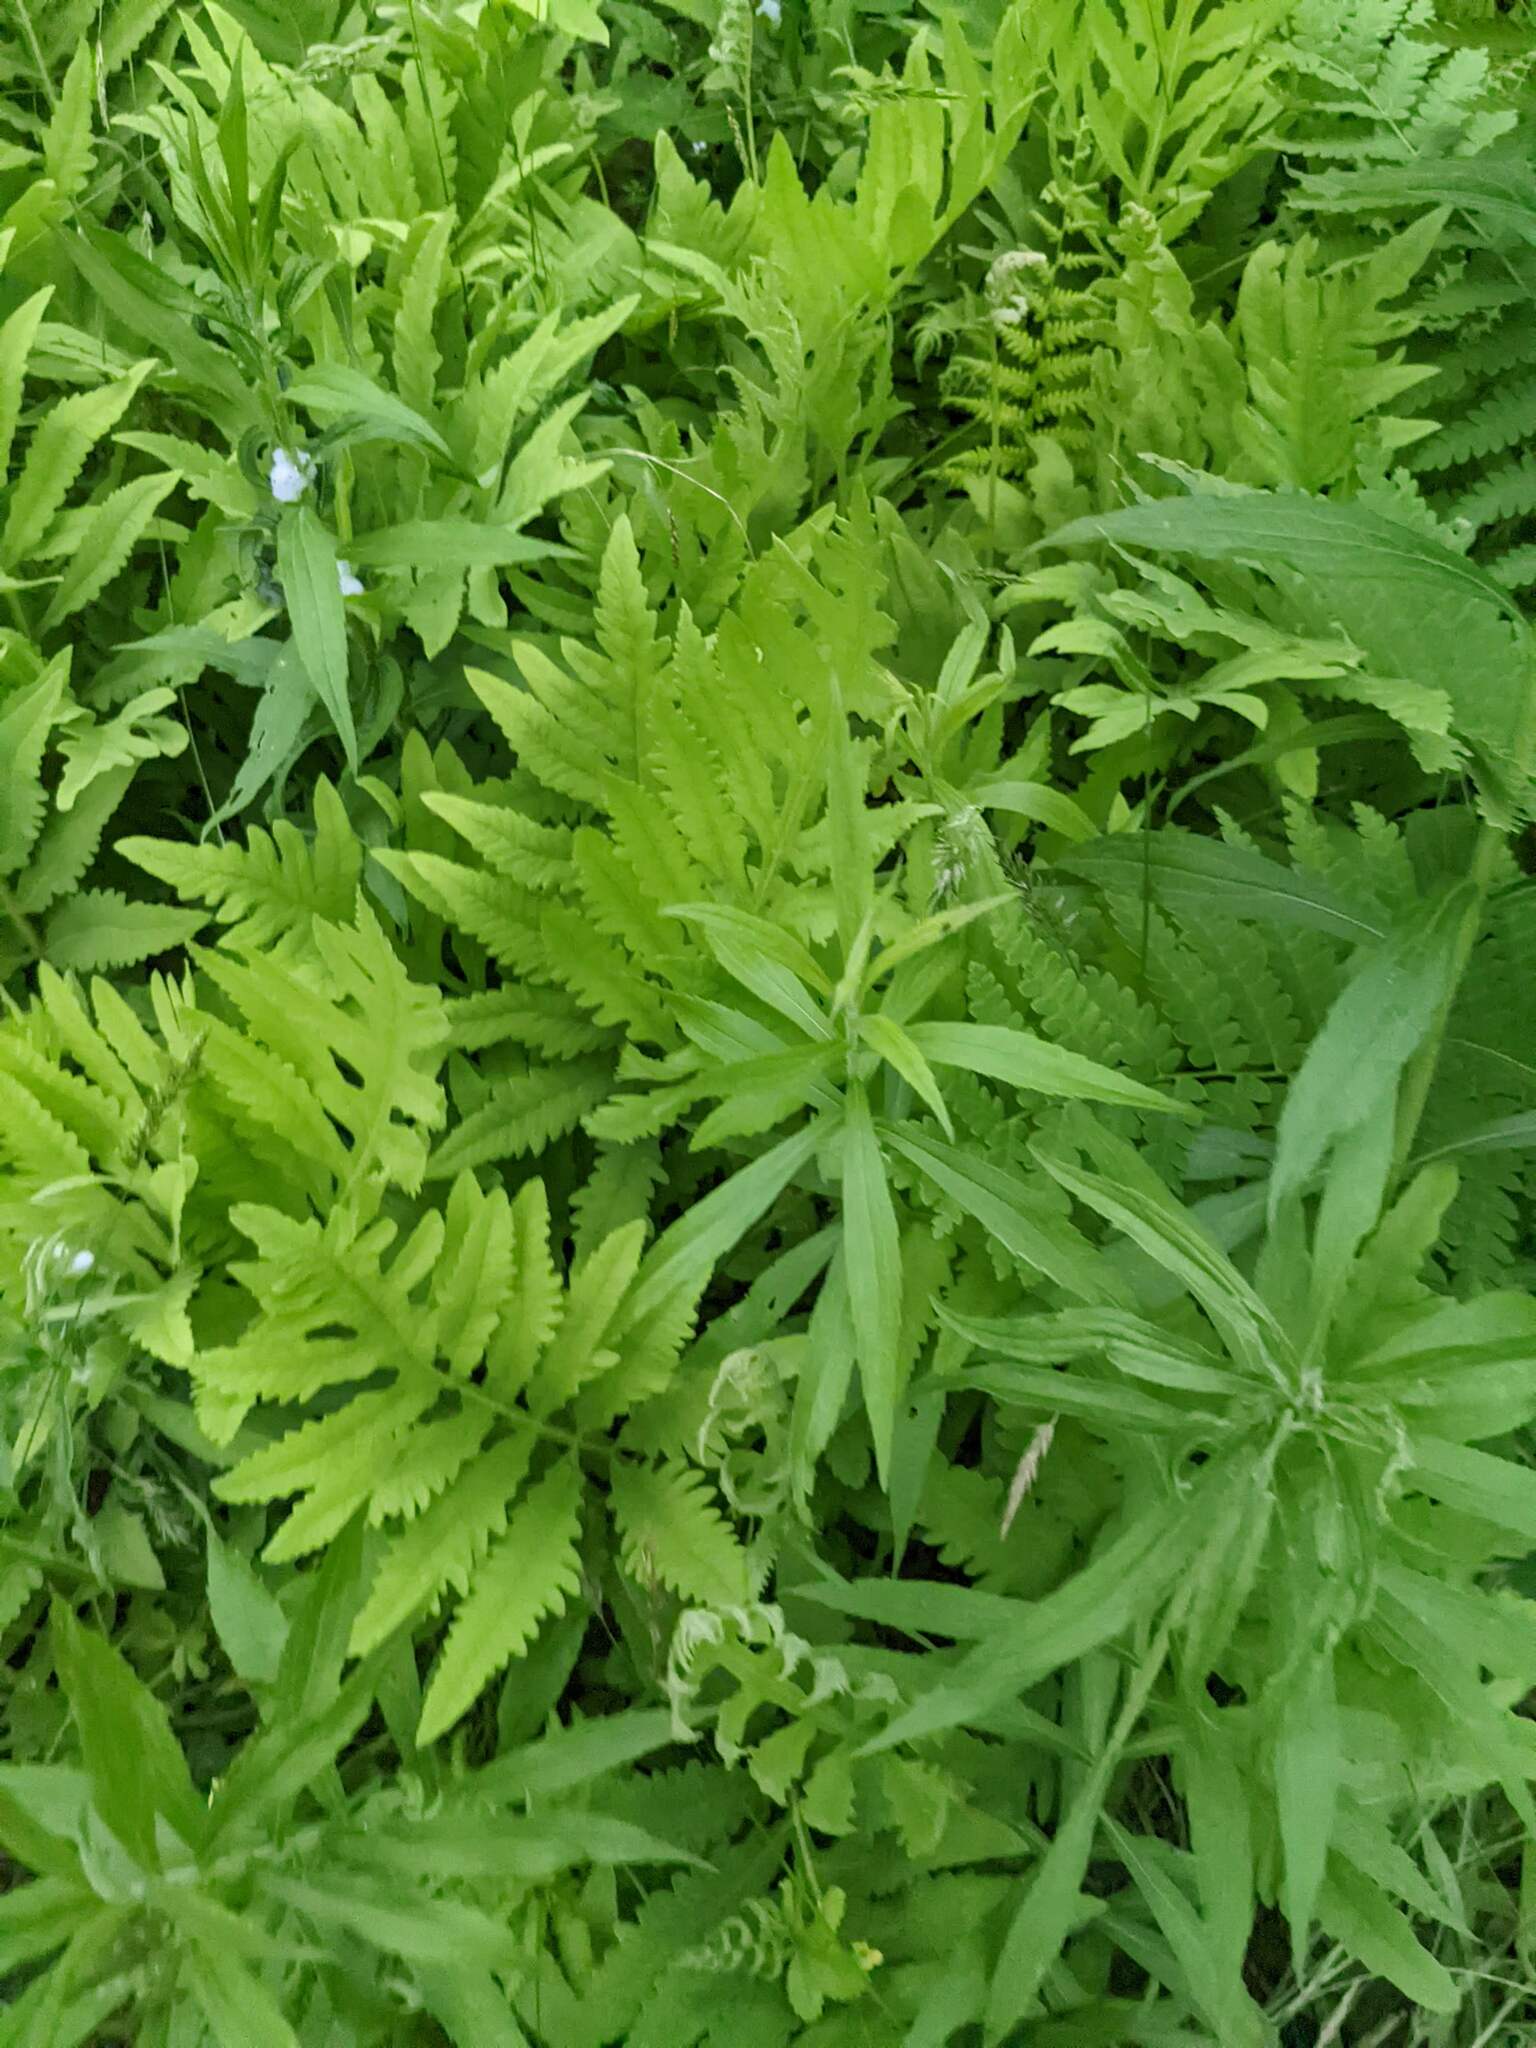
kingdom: Plantae
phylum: Tracheophyta
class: Polypodiopsida
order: Polypodiales
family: Onocleaceae
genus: Onoclea
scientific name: Onoclea sensibilis
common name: Sensitive fern
